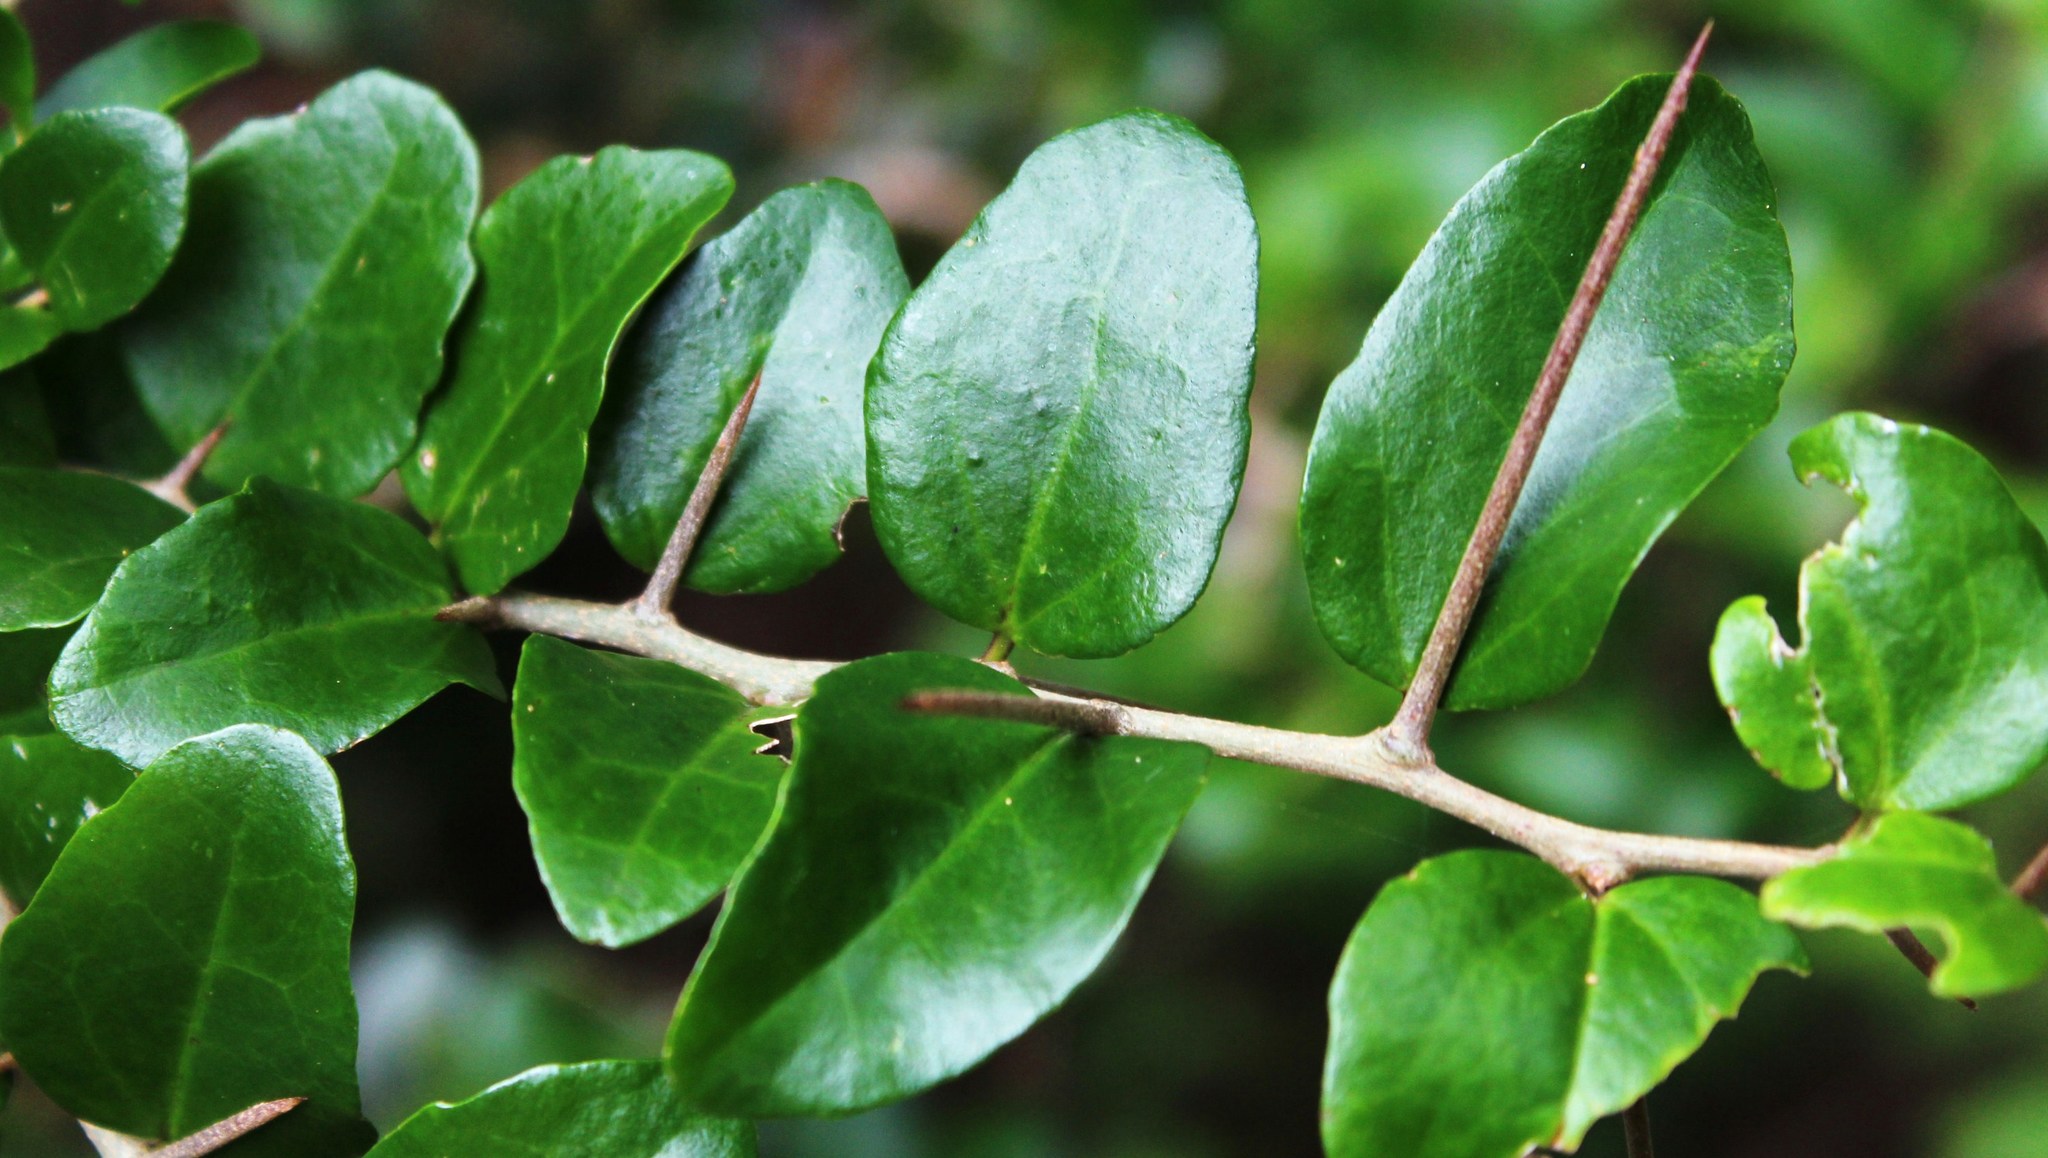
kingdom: Plantae
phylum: Tracheophyta
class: Magnoliopsida
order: Malpighiales
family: Salicaceae
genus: Dovyalis
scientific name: Dovyalis rhamnoides
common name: Sourberry
